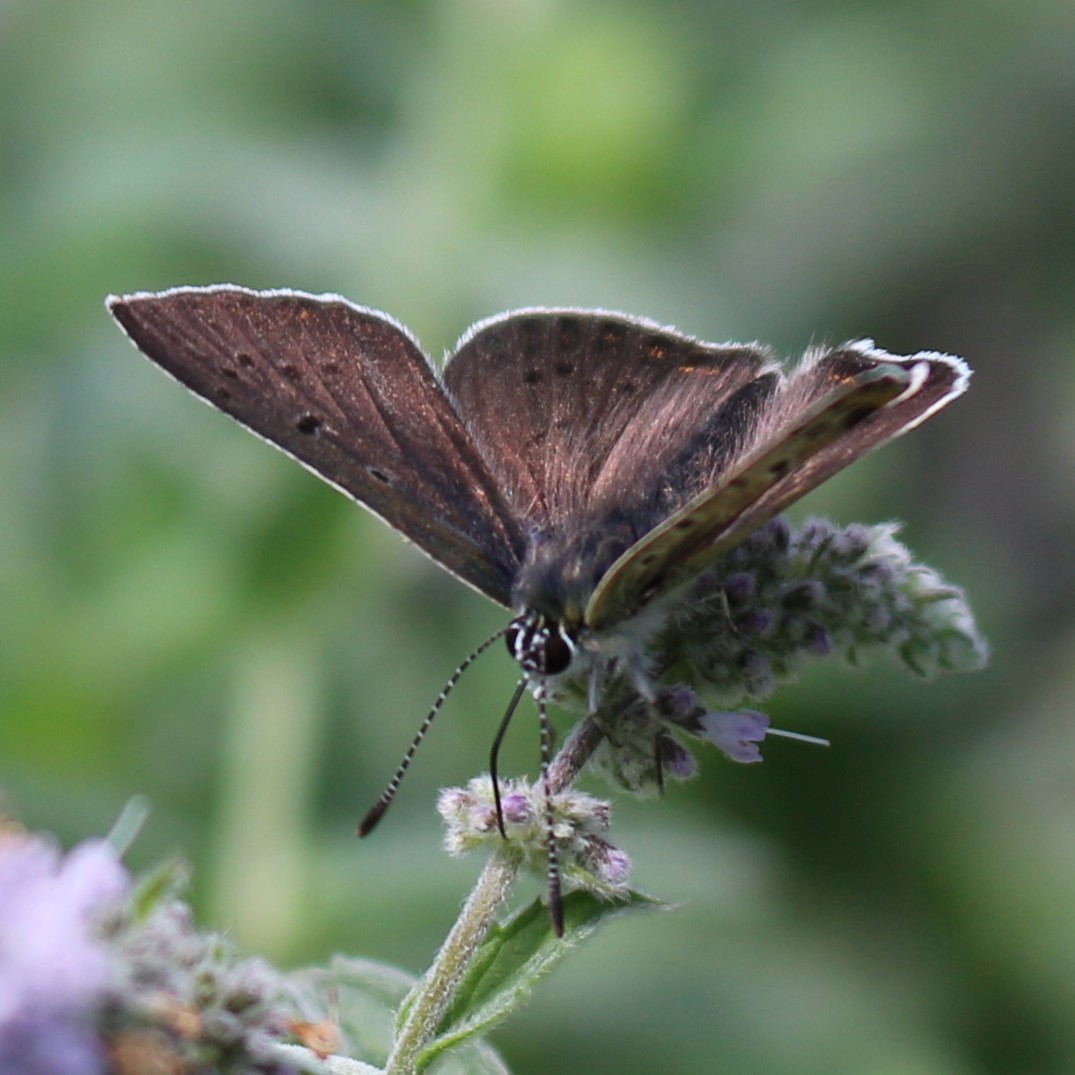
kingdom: Animalia
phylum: Arthropoda
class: Insecta
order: Lepidoptera
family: Lycaenidae
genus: Loweia
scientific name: Loweia tityrus
